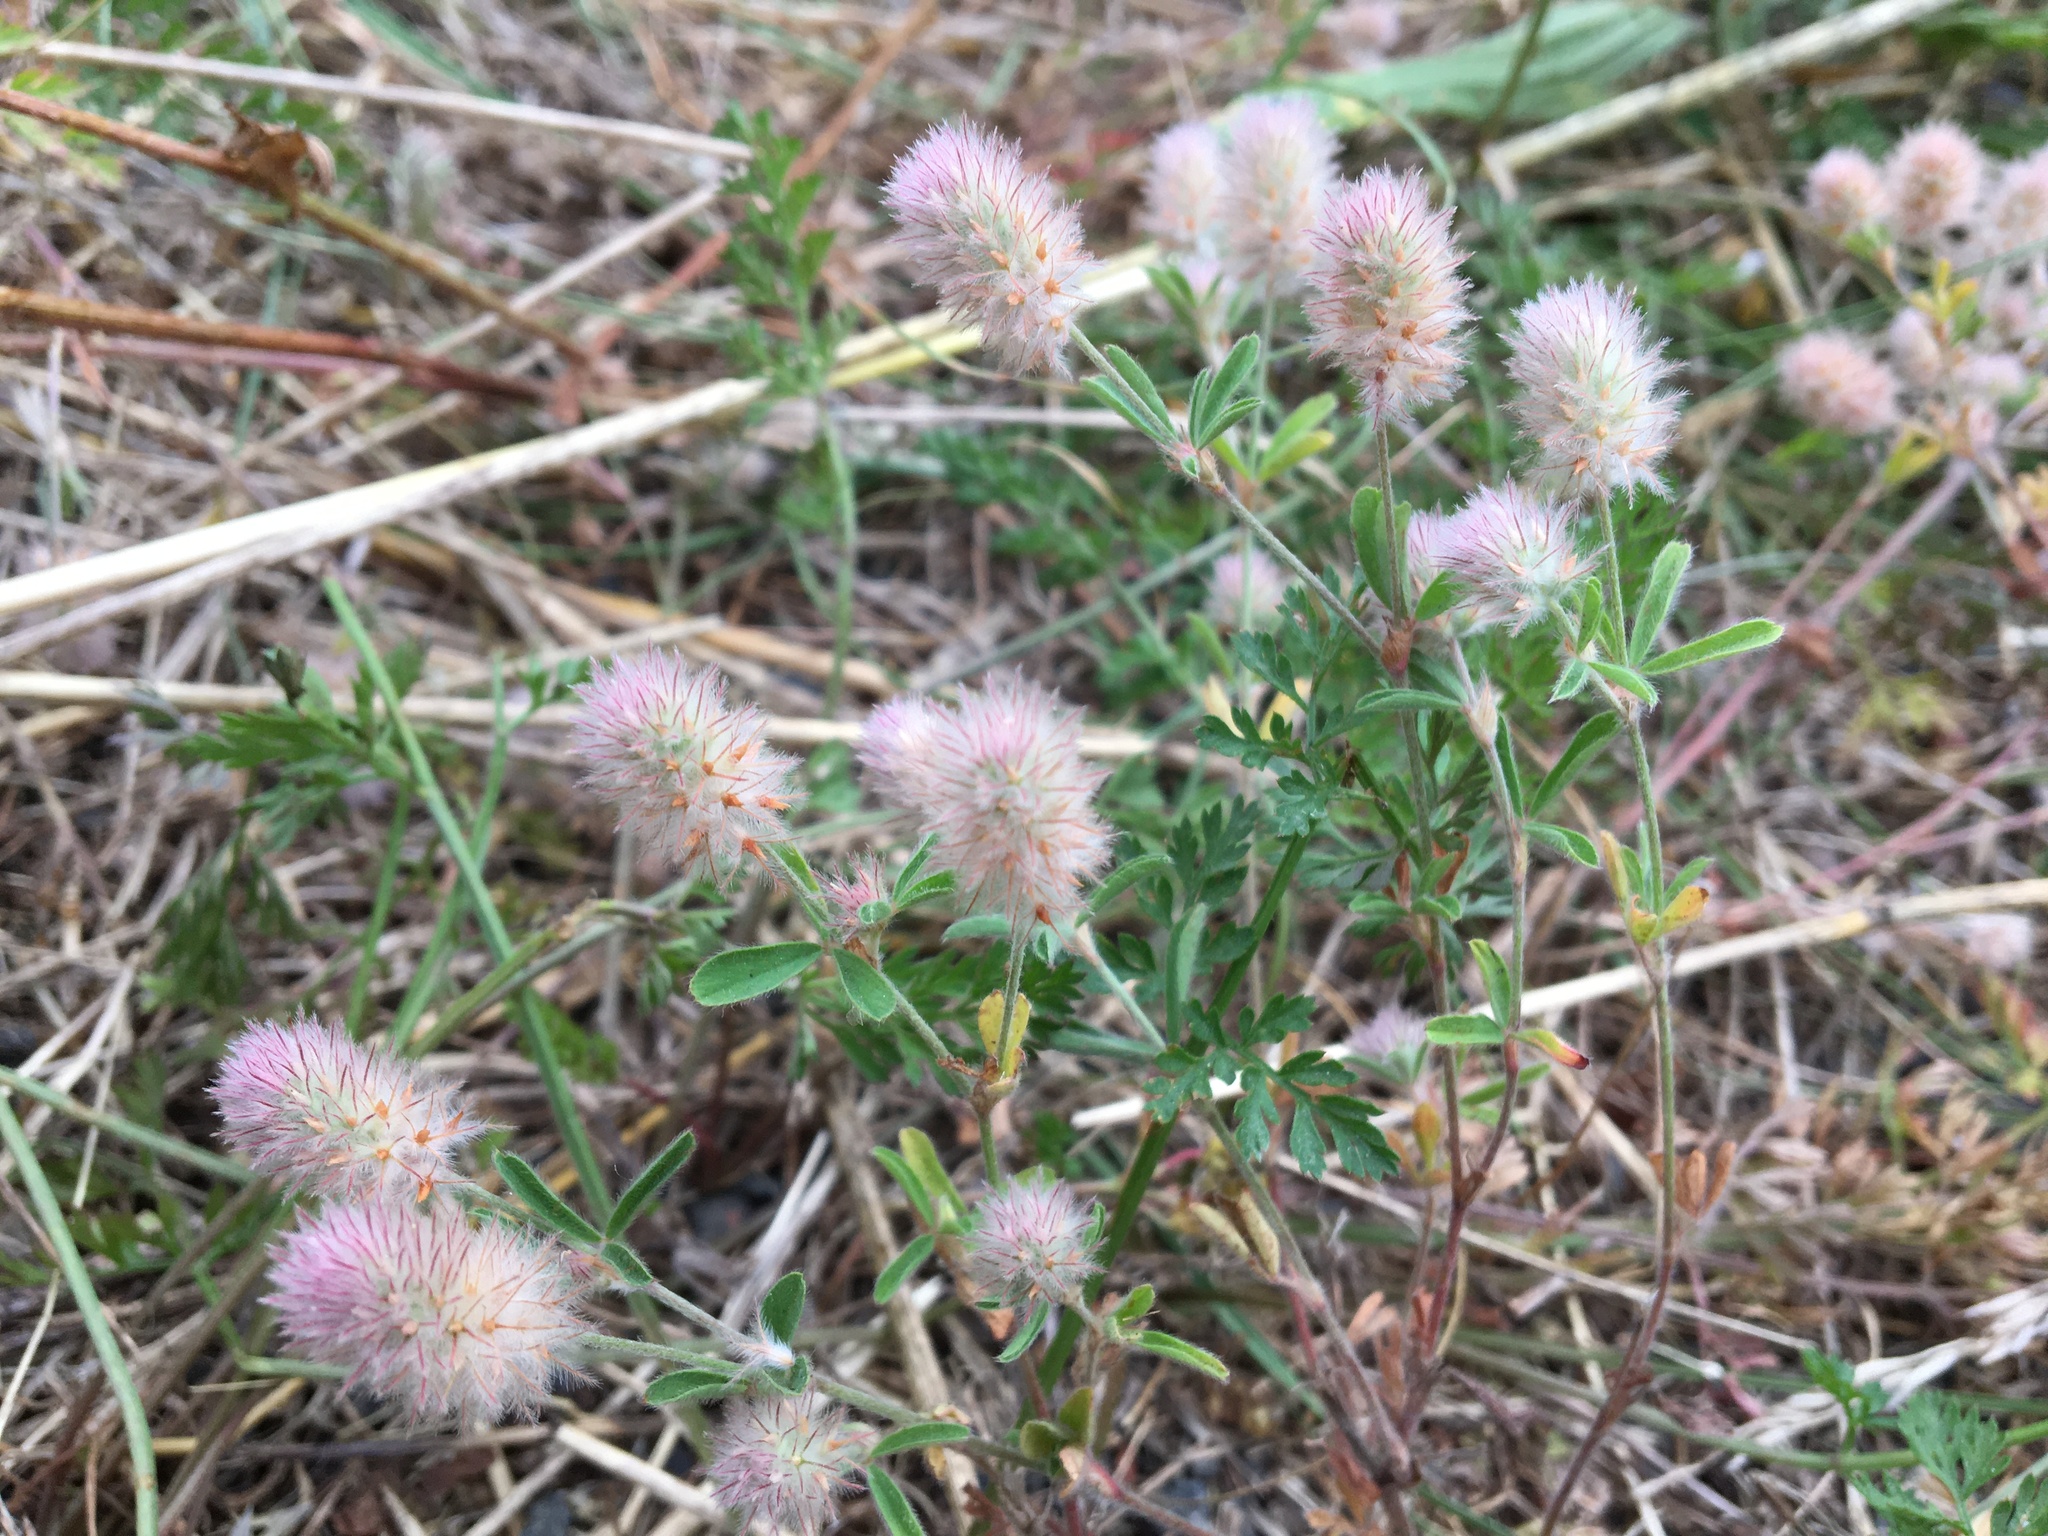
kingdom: Plantae
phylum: Tracheophyta
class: Magnoliopsida
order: Fabales
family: Fabaceae
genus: Trifolium
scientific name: Trifolium arvense
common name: Hare's-foot clover
